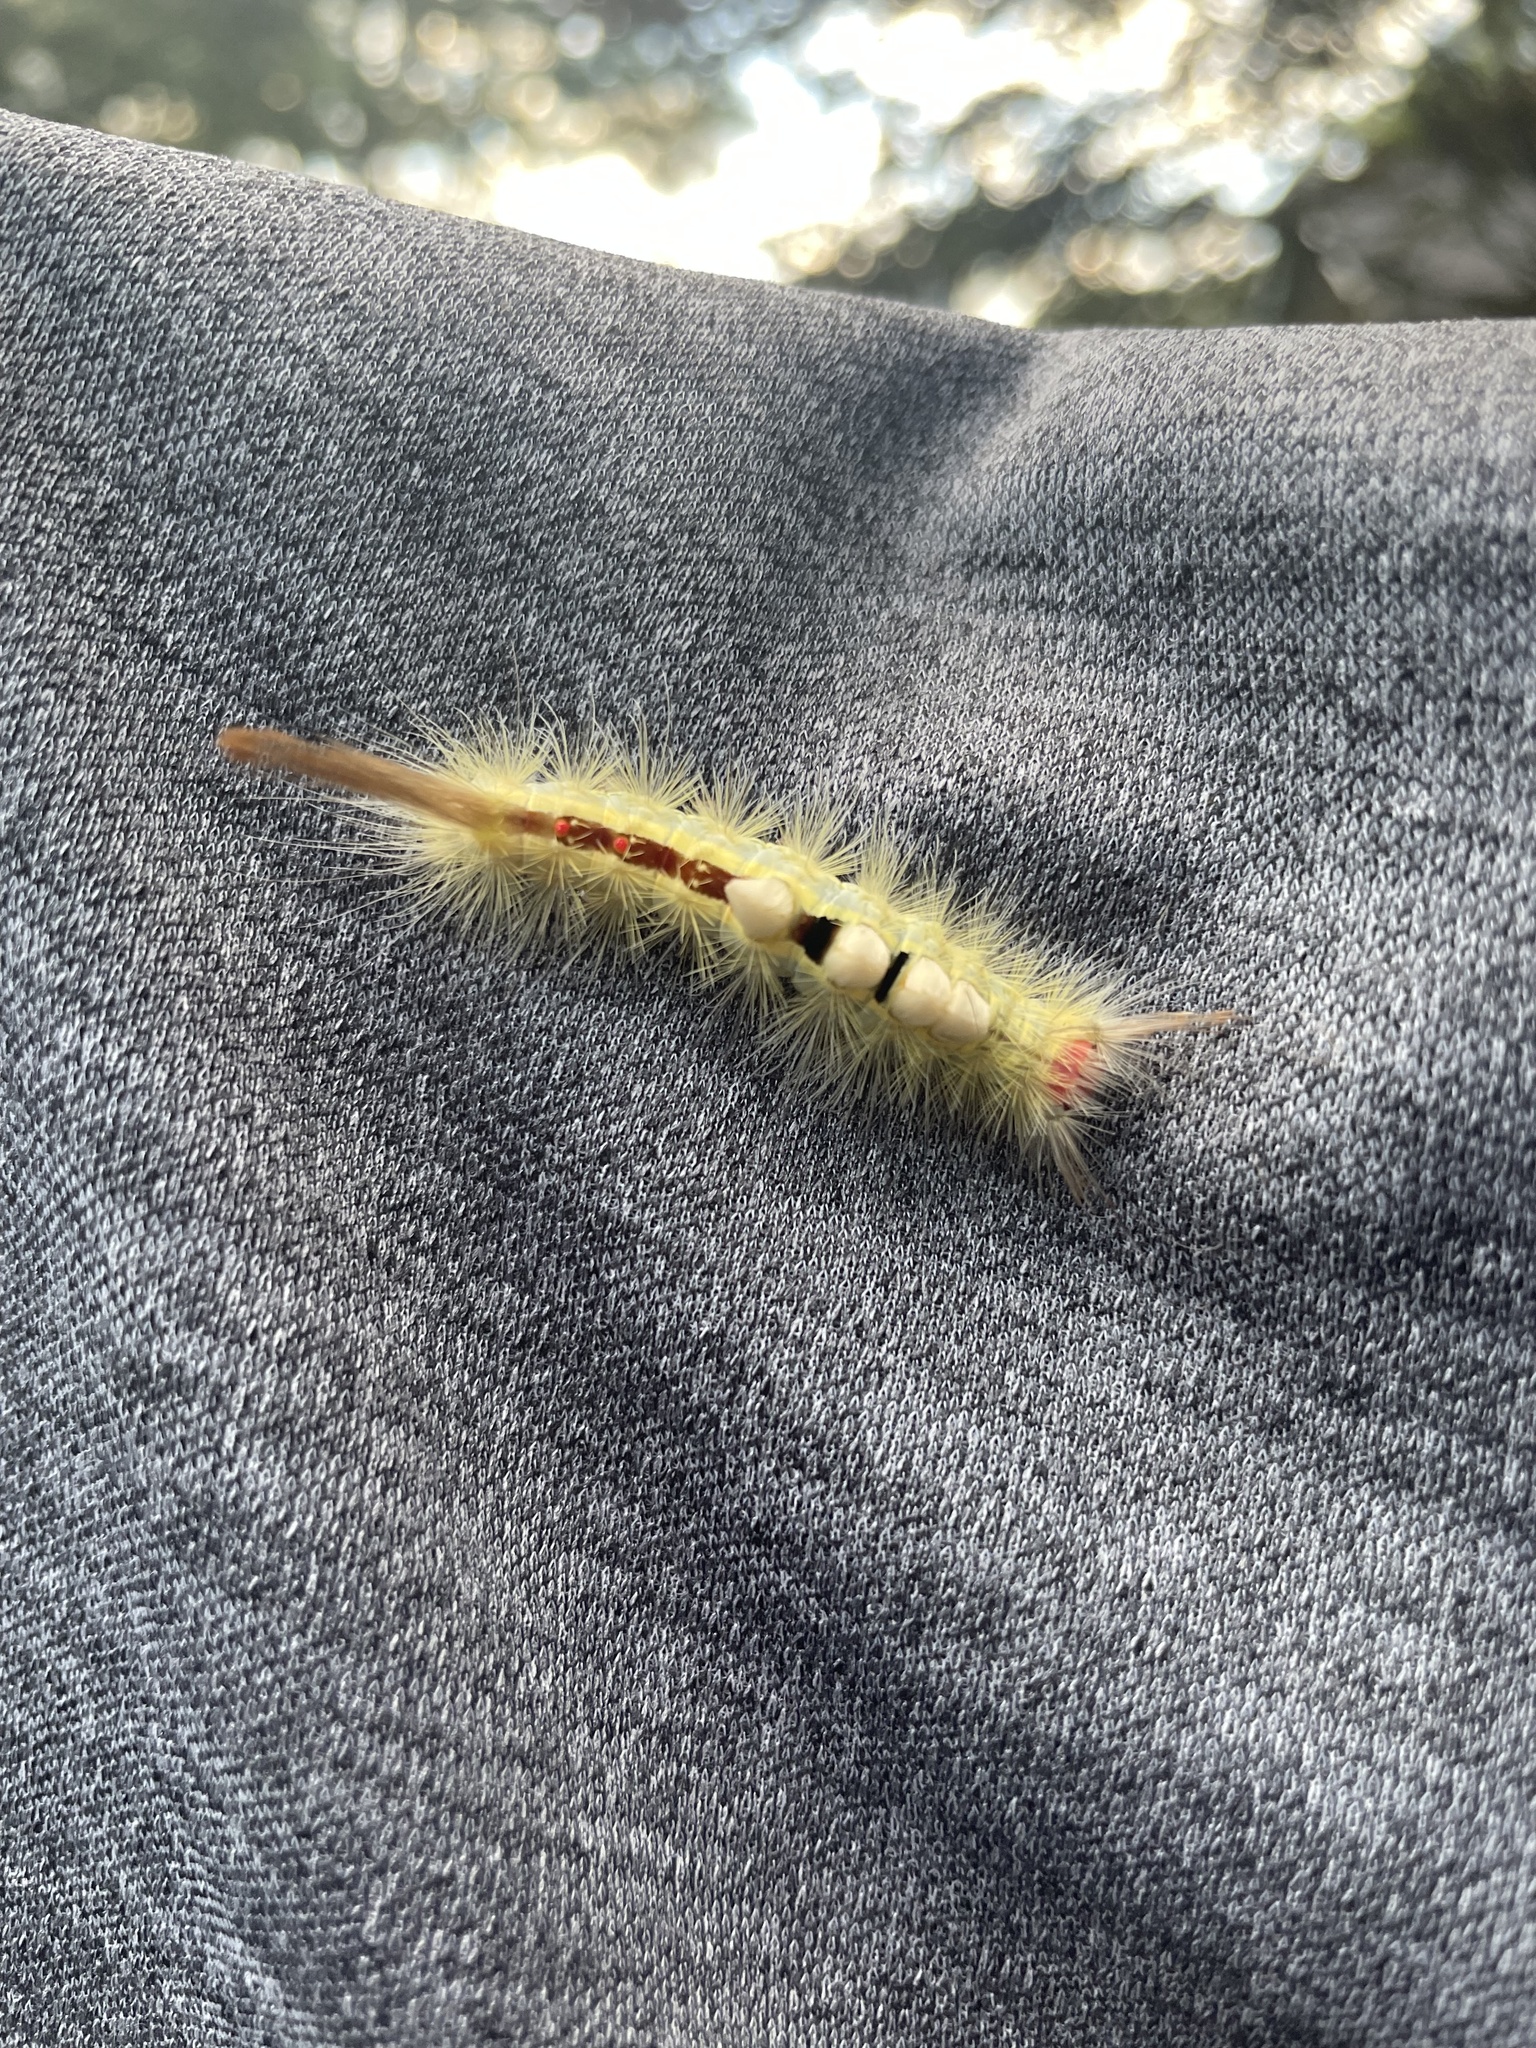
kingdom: Animalia
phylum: Arthropoda
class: Insecta
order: Lepidoptera
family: Erebidae
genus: Orgyia
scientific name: Orgyia leucostigma
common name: White-marked tussock moth
